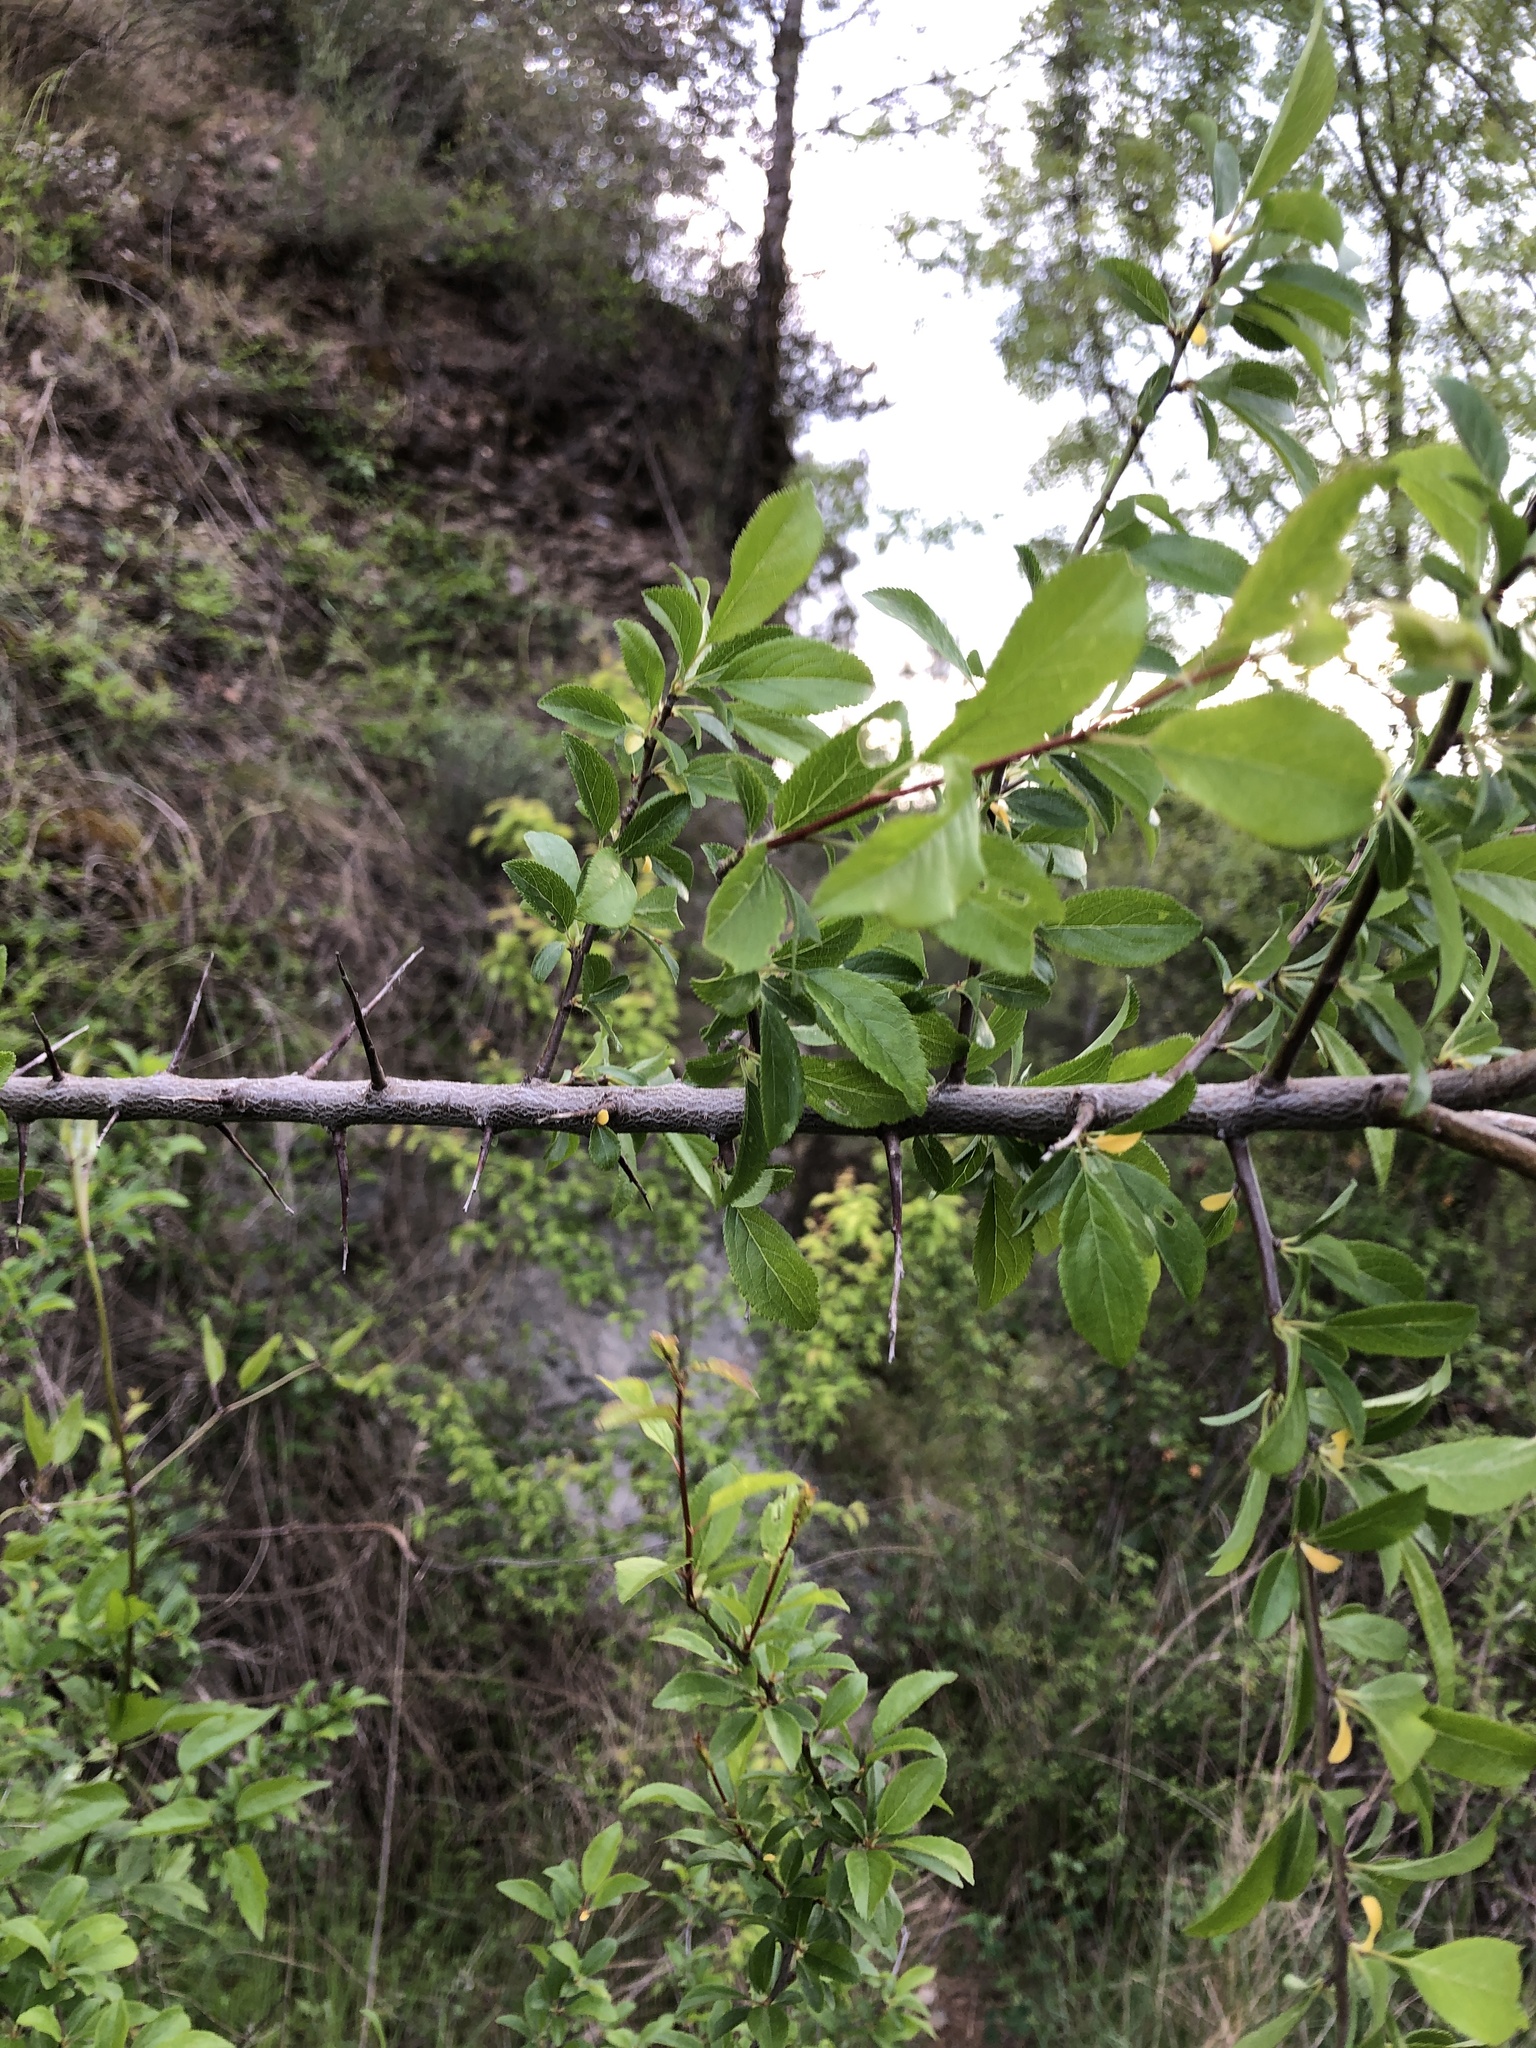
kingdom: Plantae
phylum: Tracheophyta
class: Magnoliopsida
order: Rosales
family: Rosaceae
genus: Prunus
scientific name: Prunus
